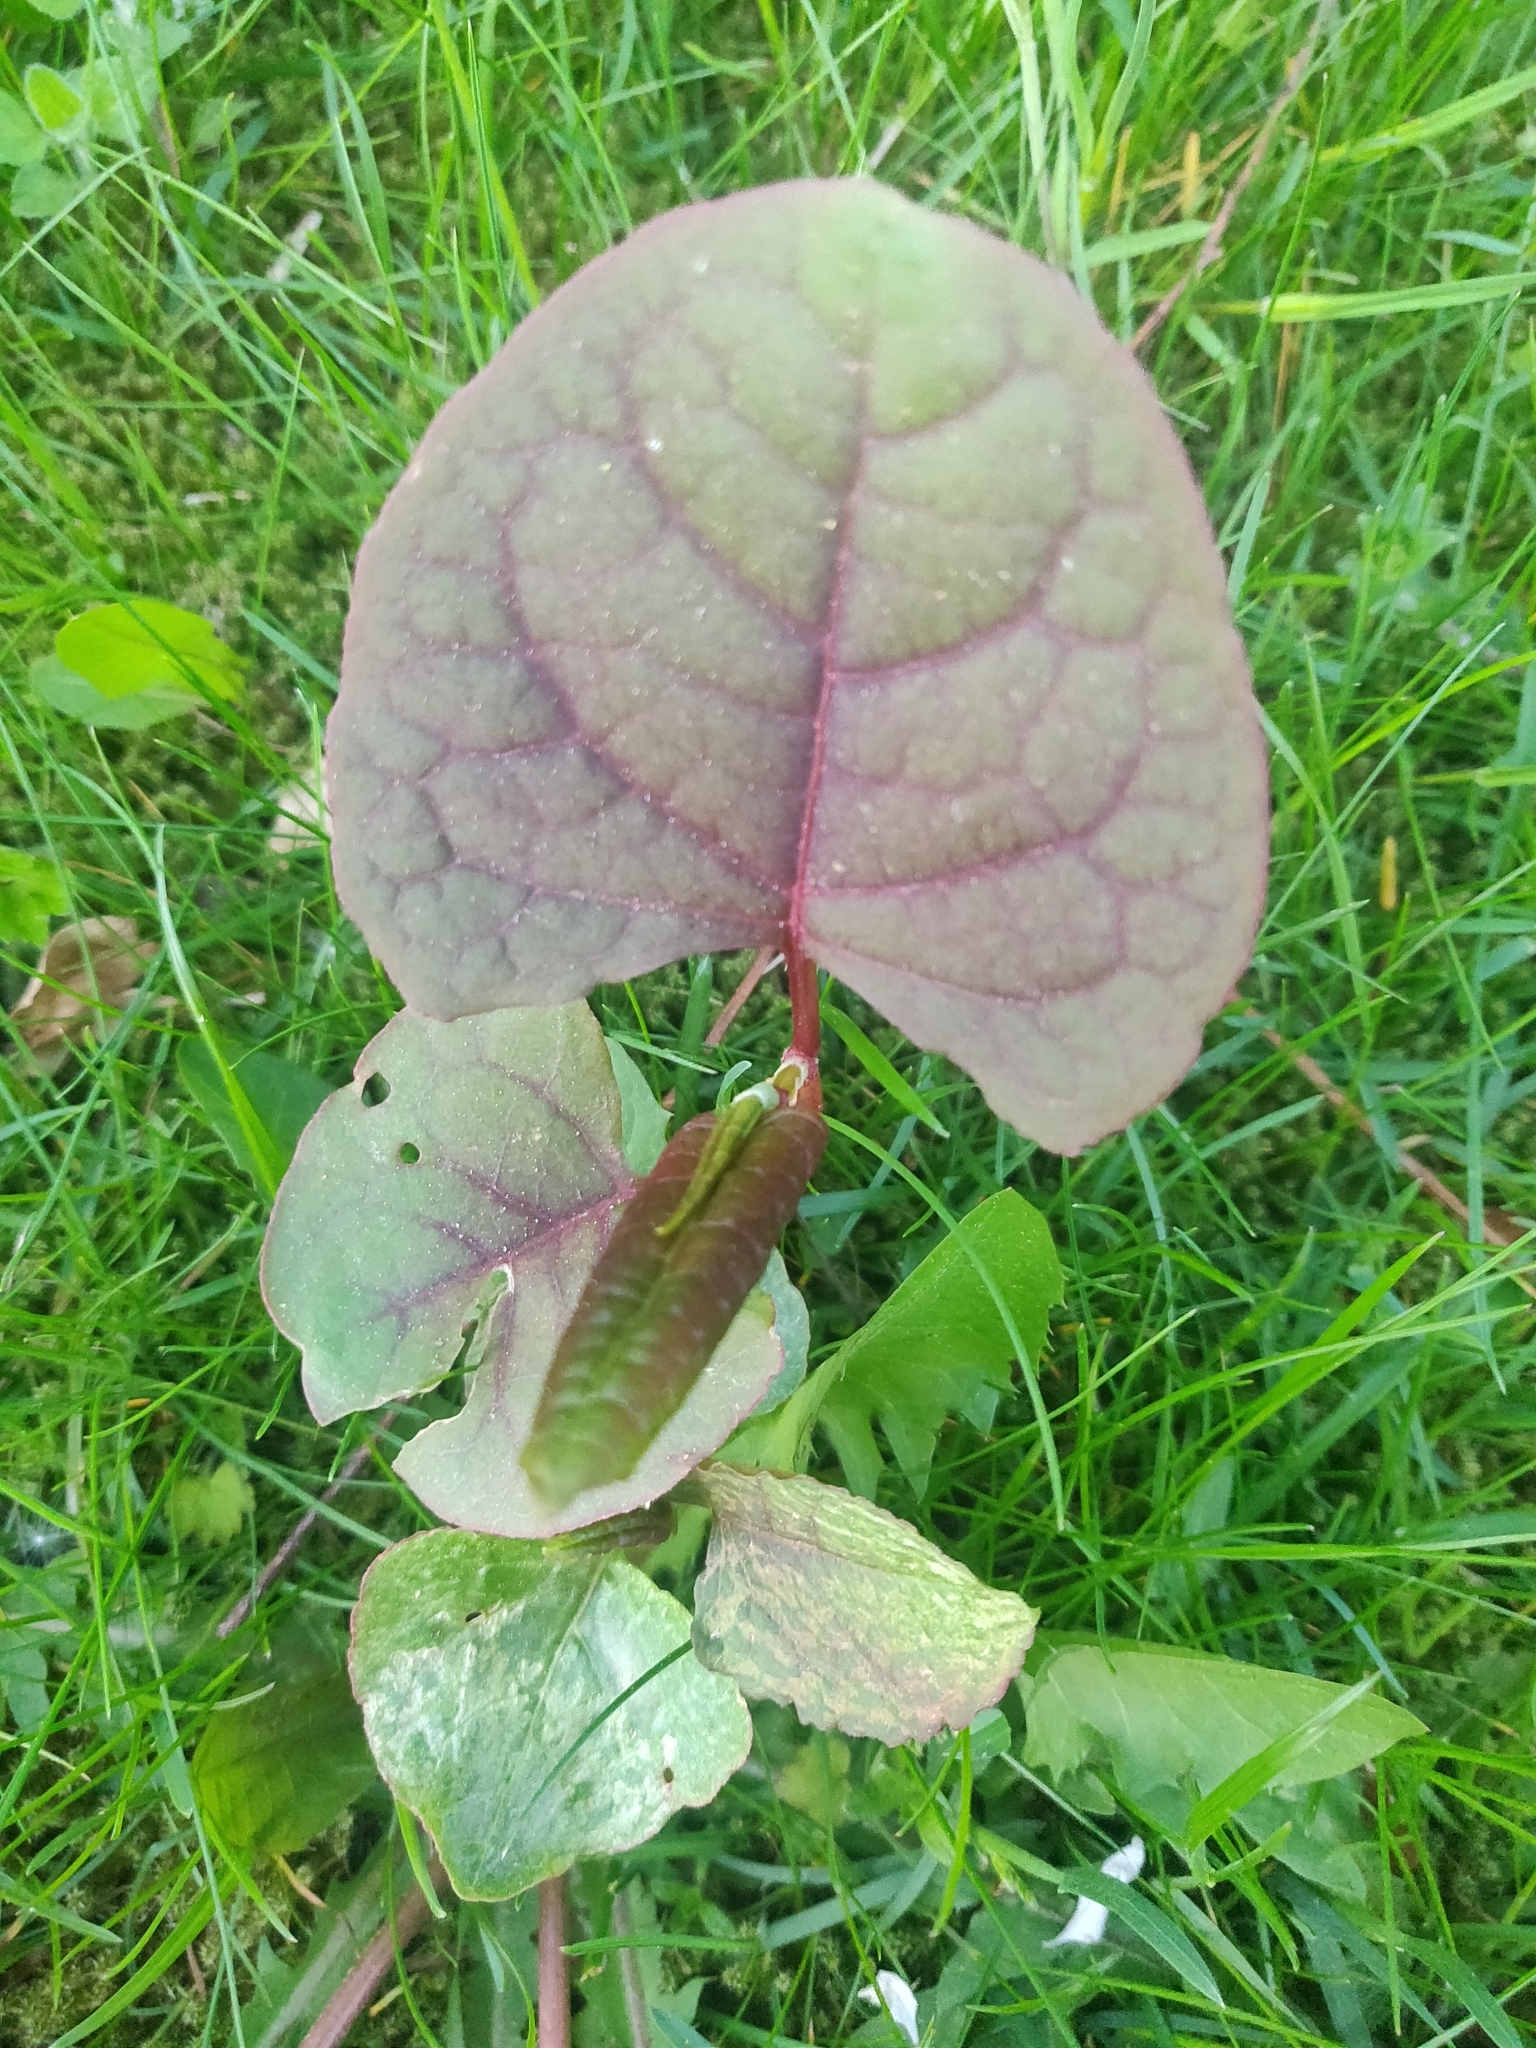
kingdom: Plantae
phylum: Tracheophyta
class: Magnoliopsida
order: Caryophyllales
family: Polygonaceae
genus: Reynoutria
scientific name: Reynoutria
